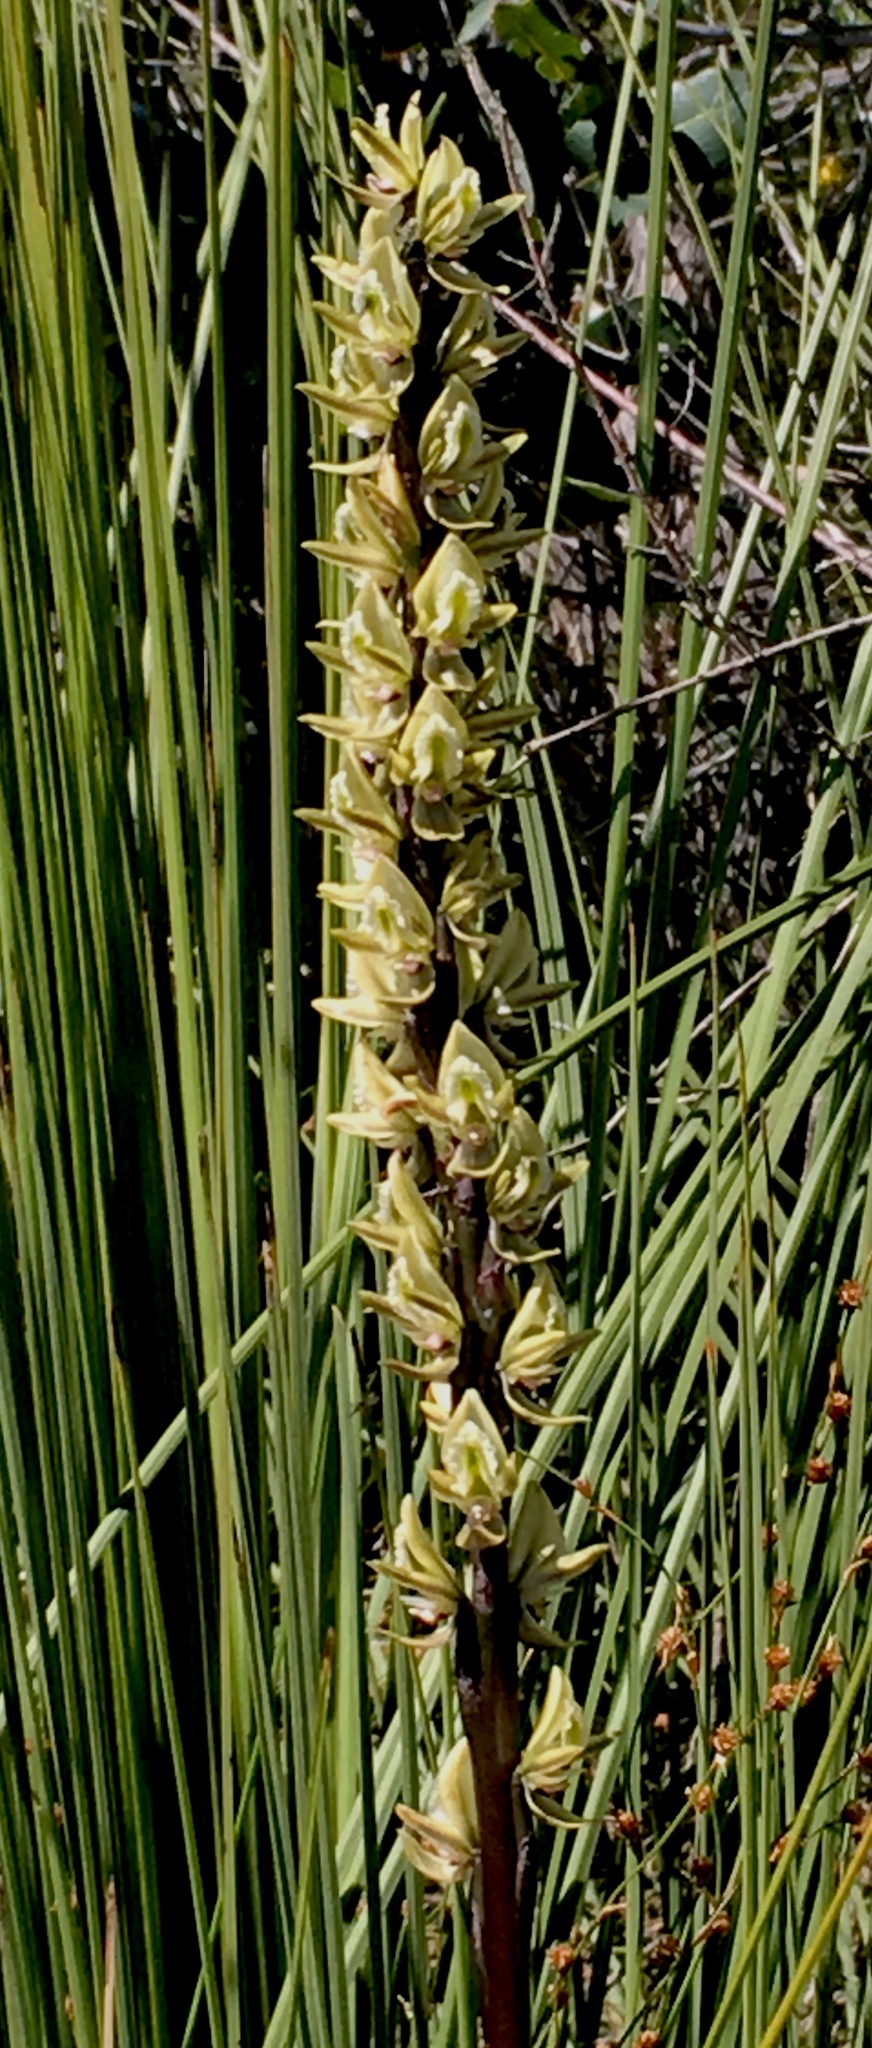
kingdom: Plantae
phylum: Tracheophyta
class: Liliopsida
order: Asparagales
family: Orchidaceae
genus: Prasophyllum
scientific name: Prasophyllum elatum
